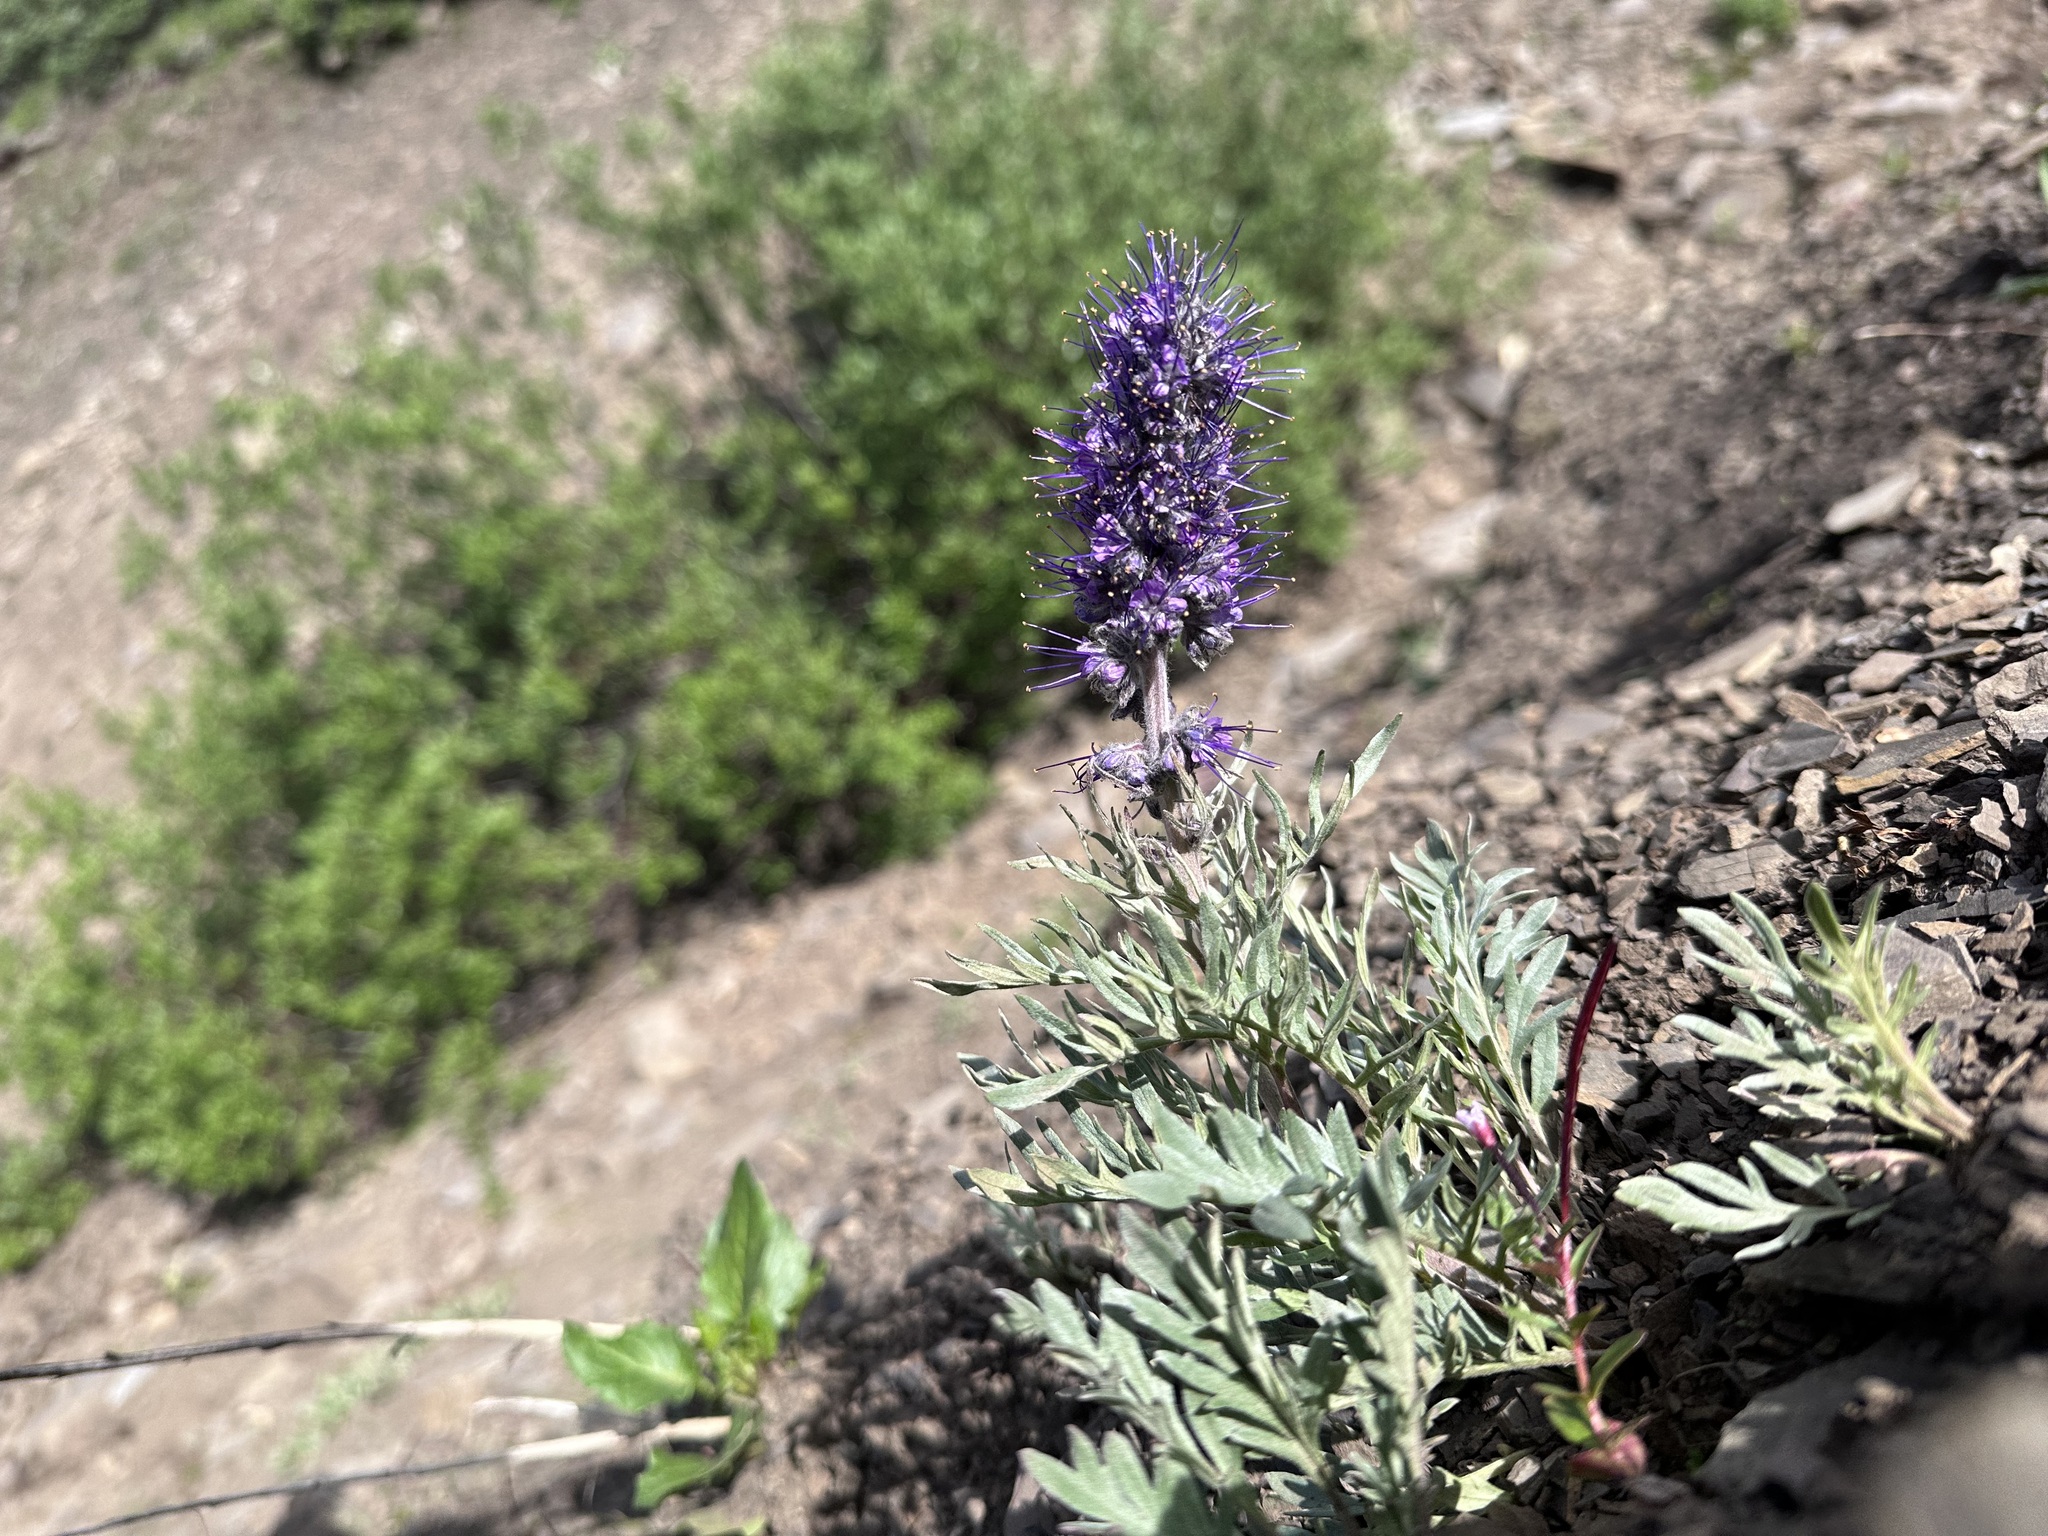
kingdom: Plantae
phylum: Tracheophyta
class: Magnoliopsida
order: Boraginales
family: Hydrophyllaceae
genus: Phacelia
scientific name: Phacelia sericea
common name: Silky phacelia
